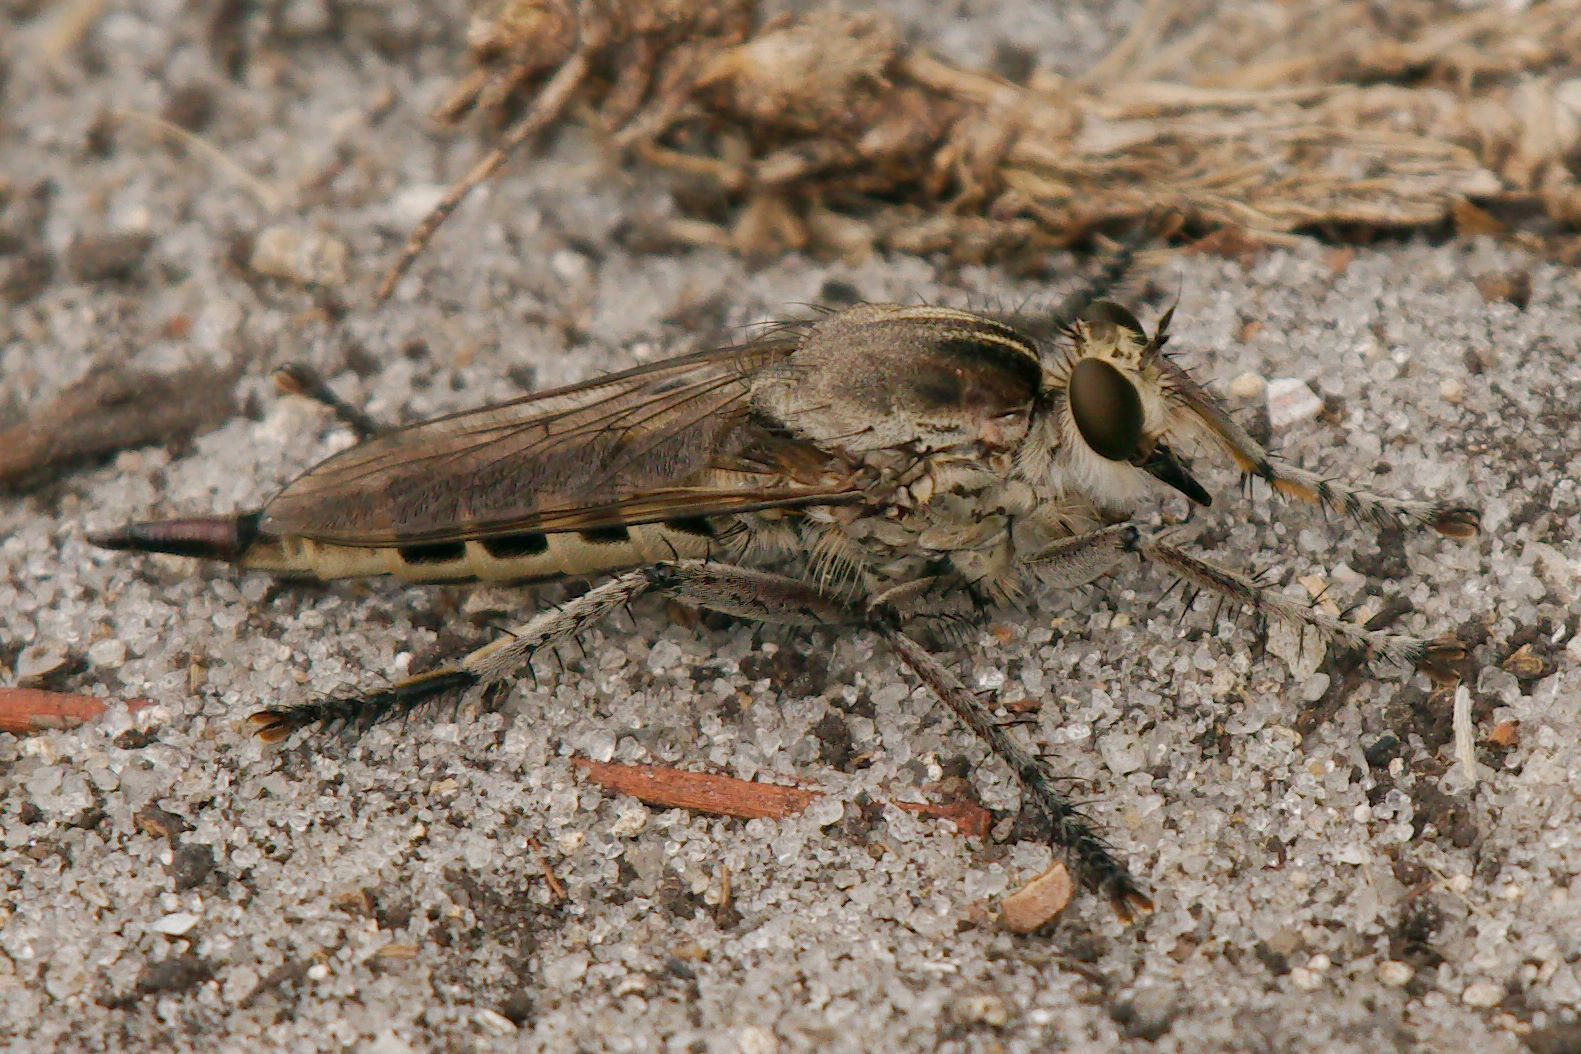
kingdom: Animalia
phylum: Arthropoda
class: Insecta
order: Diptera
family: Asilidae
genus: Triorla
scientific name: Triorla interrupta
